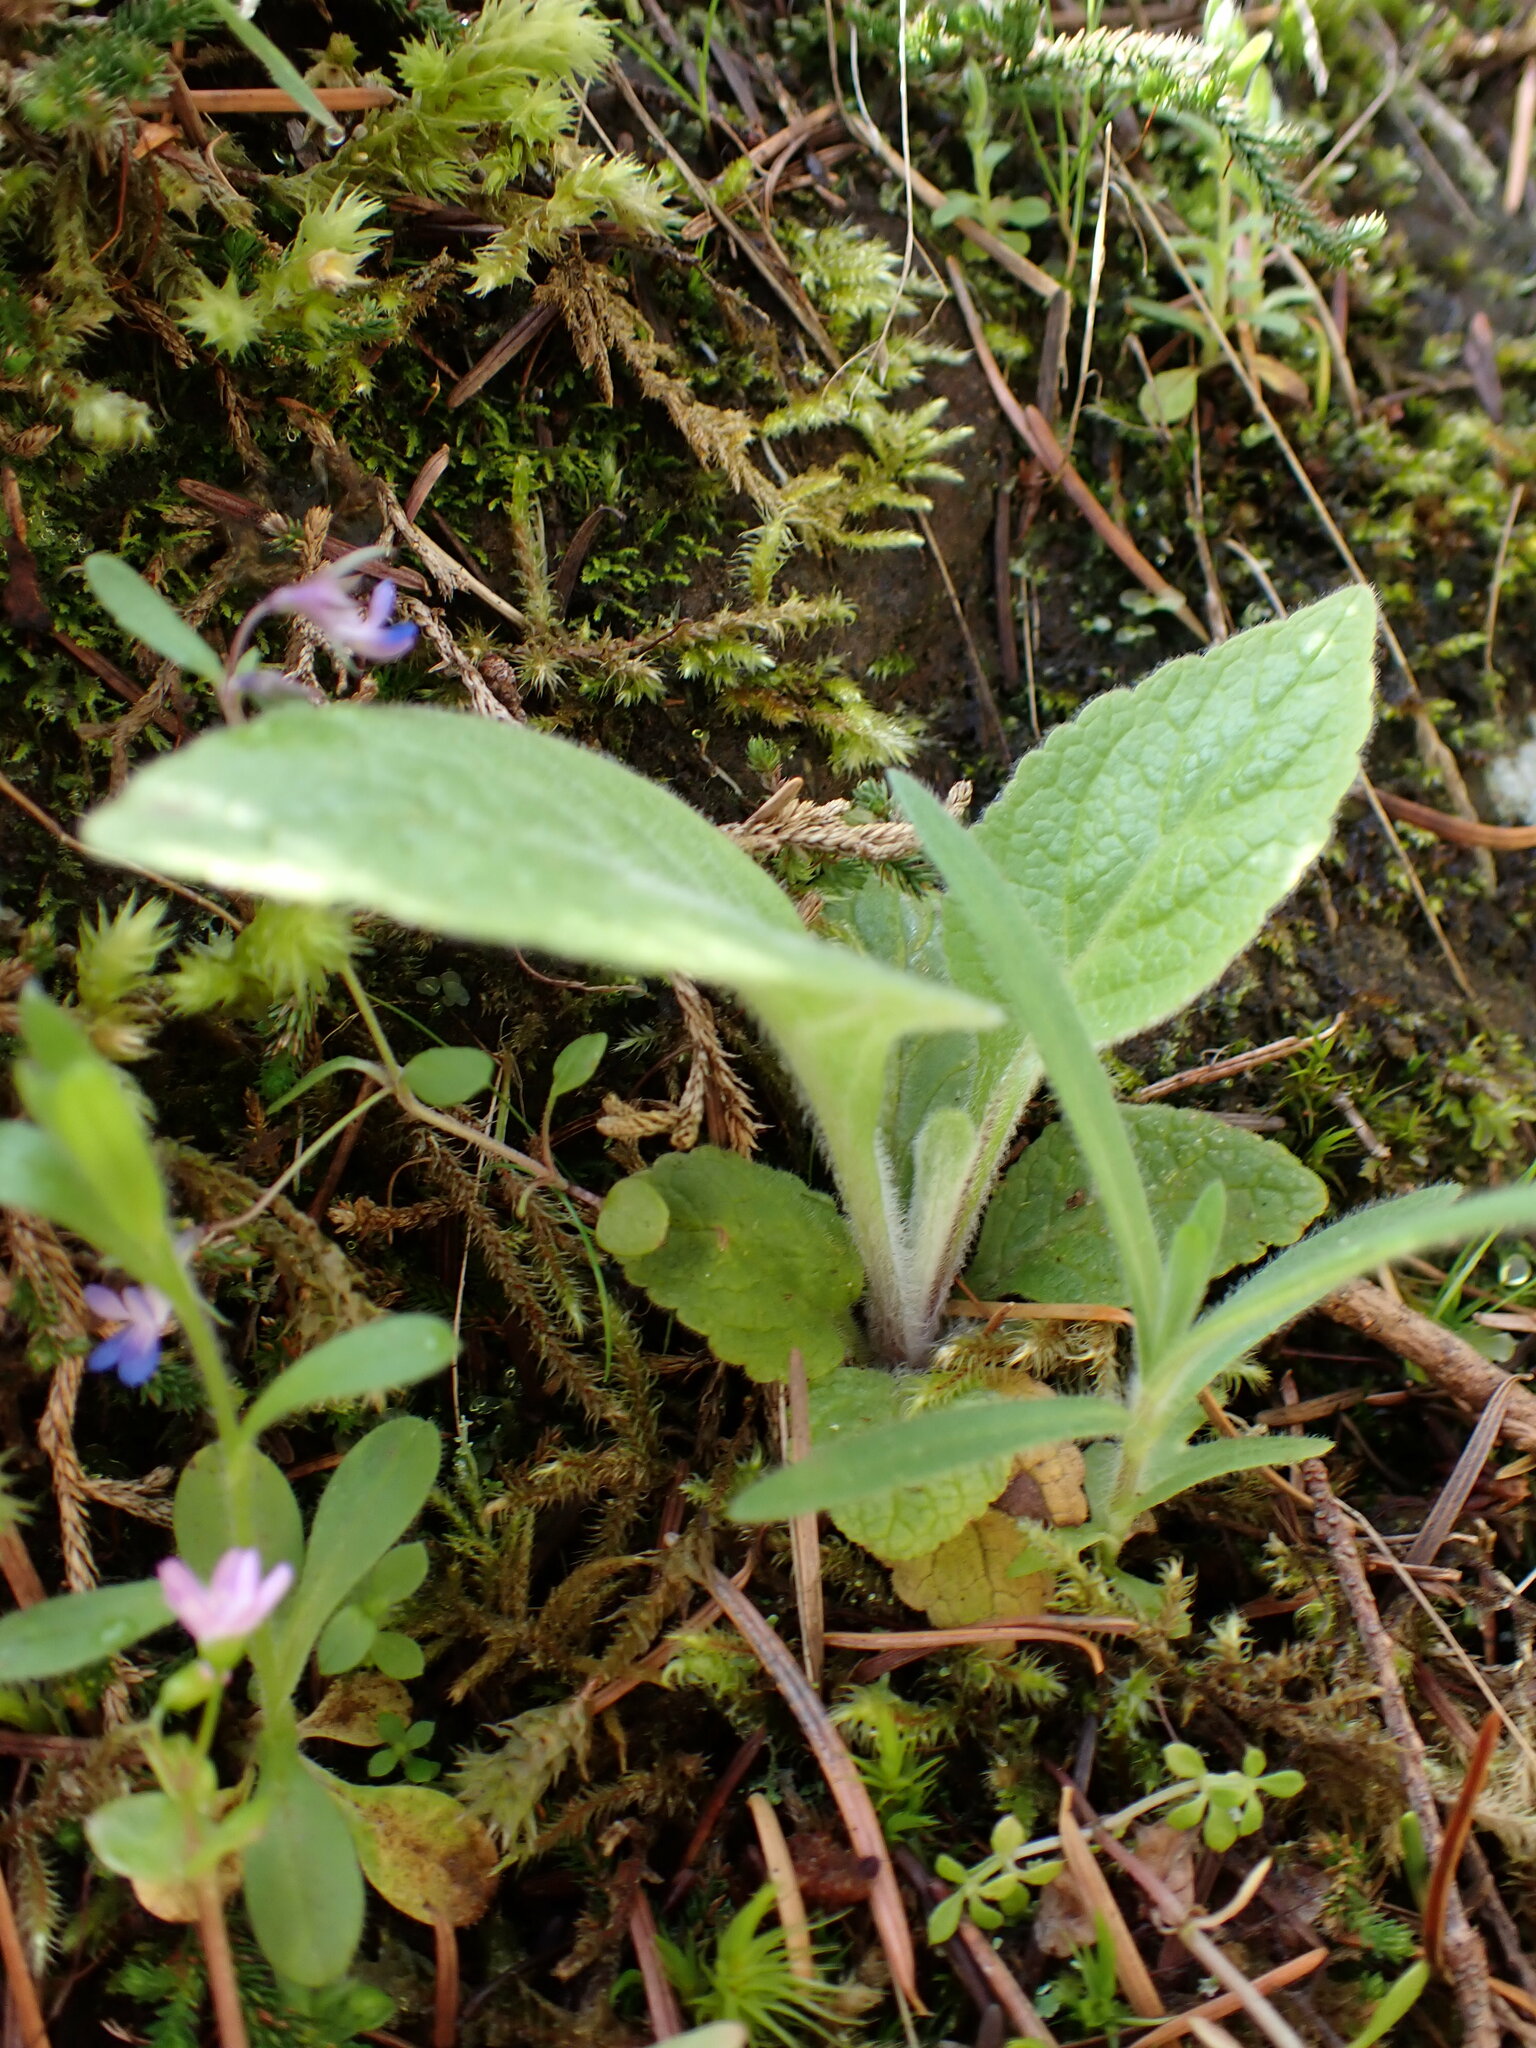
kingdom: Plantae
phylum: Tracheophyta
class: Magnoliopsida
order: Lamiales
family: Plantaginaceae
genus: Digitalis
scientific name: Digitalis purpurea
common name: Foxglove
